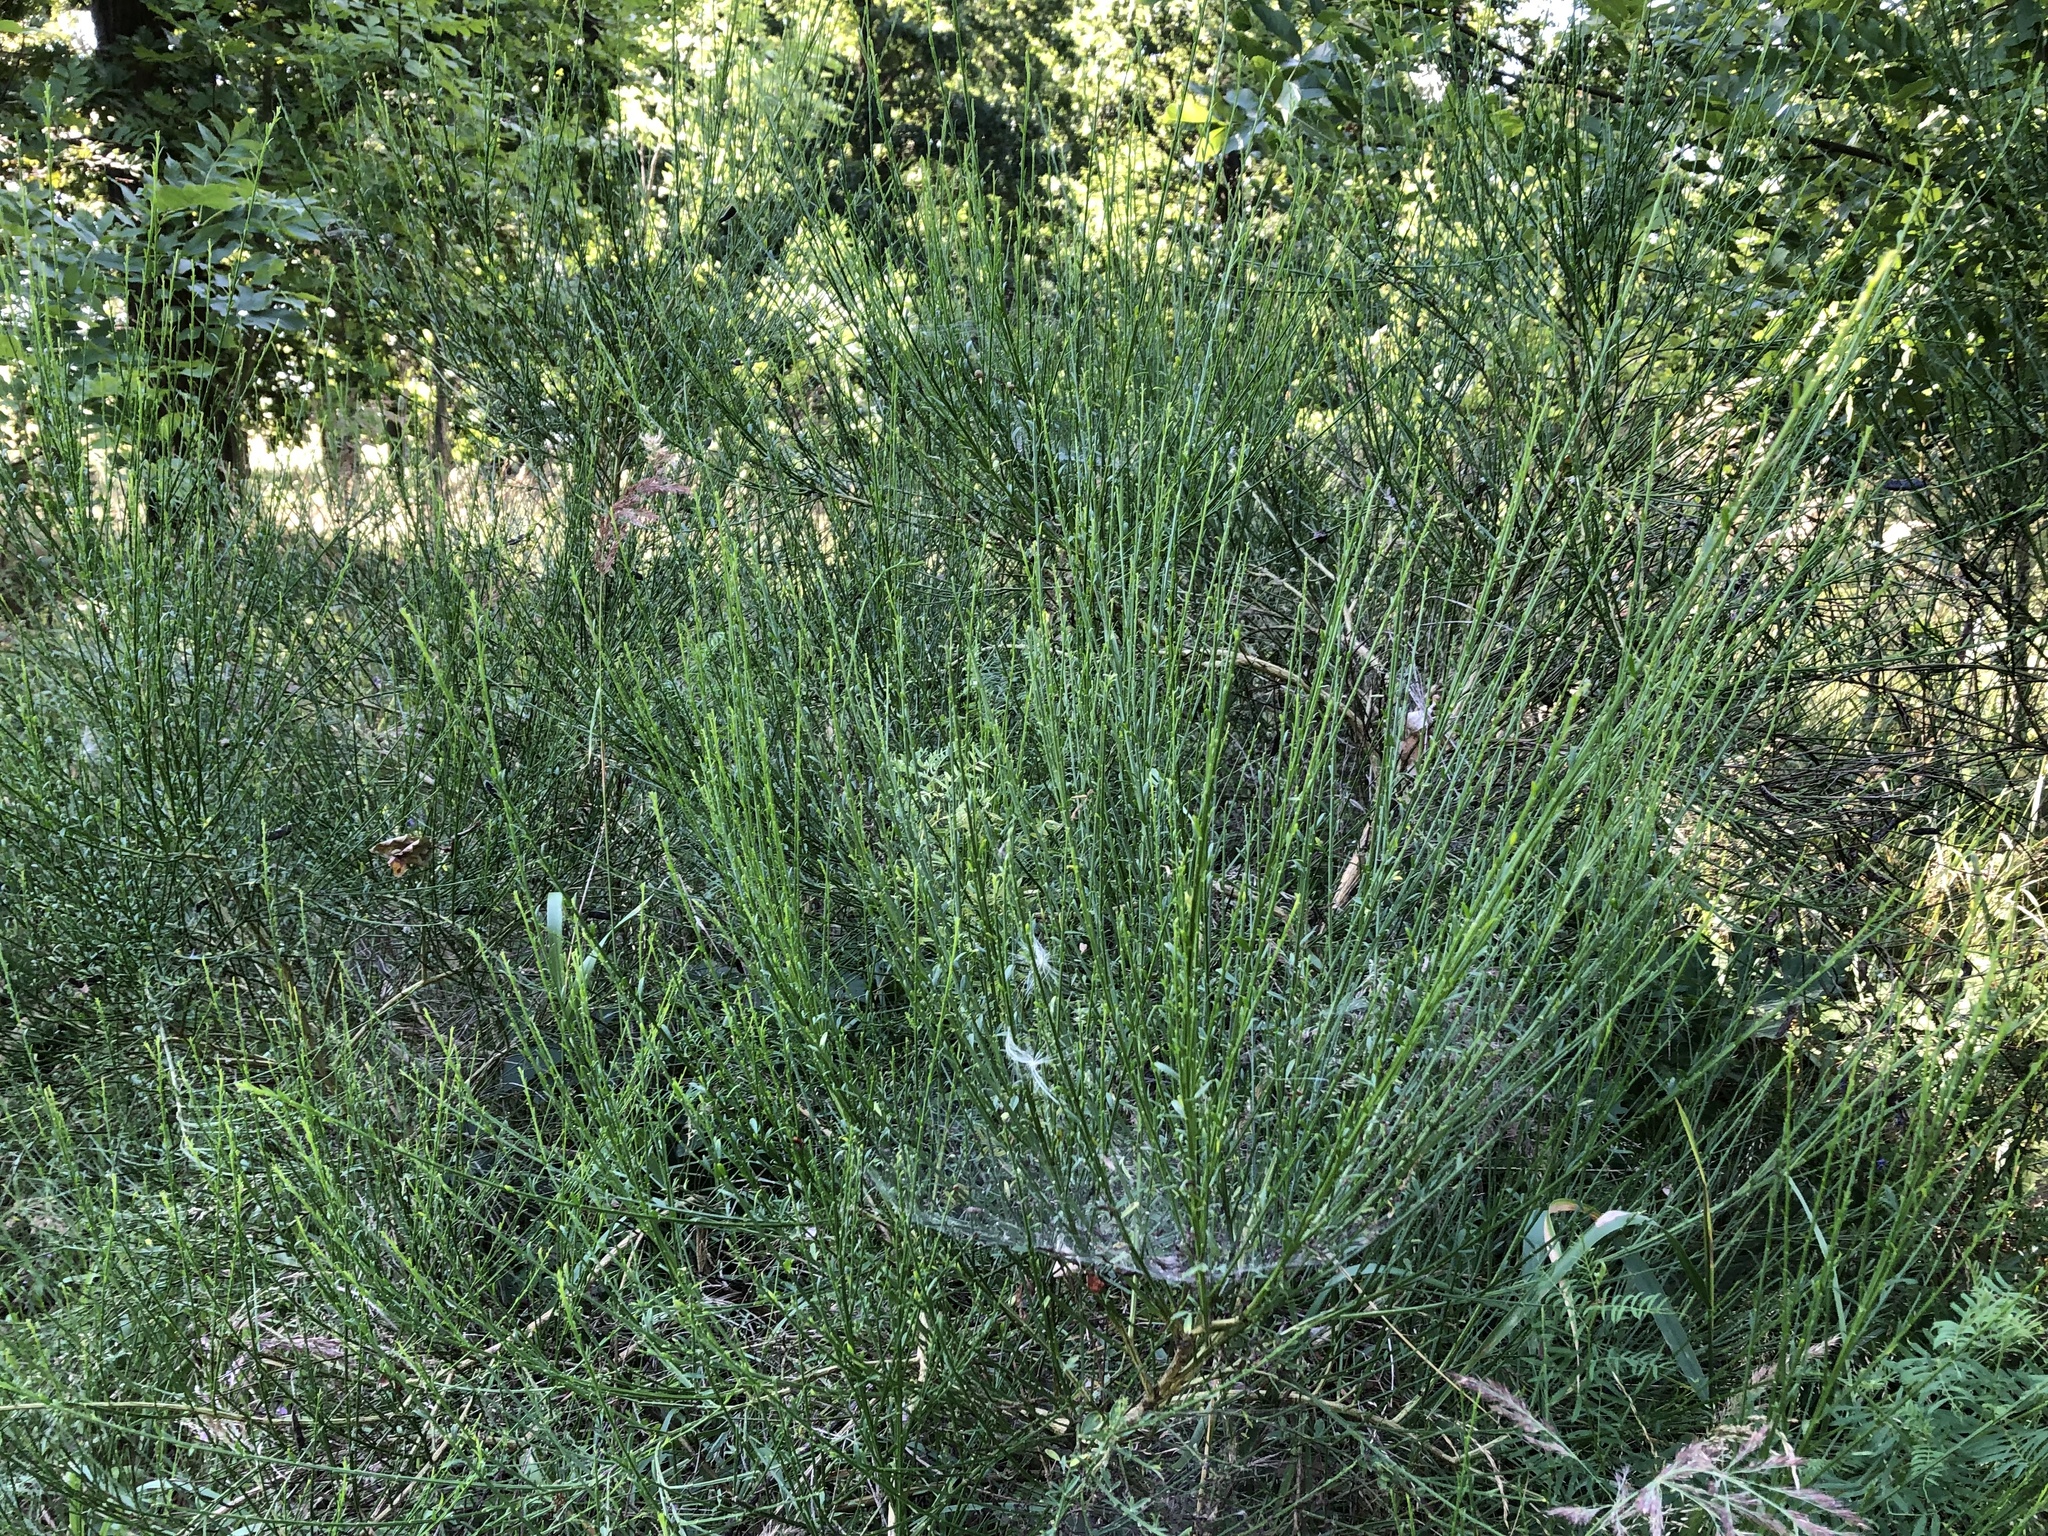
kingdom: Plantae
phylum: Tracheophyta
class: Magnoliopsida
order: Fabales
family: Fabaceae
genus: Cytisus
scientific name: Cytisus scoparius
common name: Scotch broom
